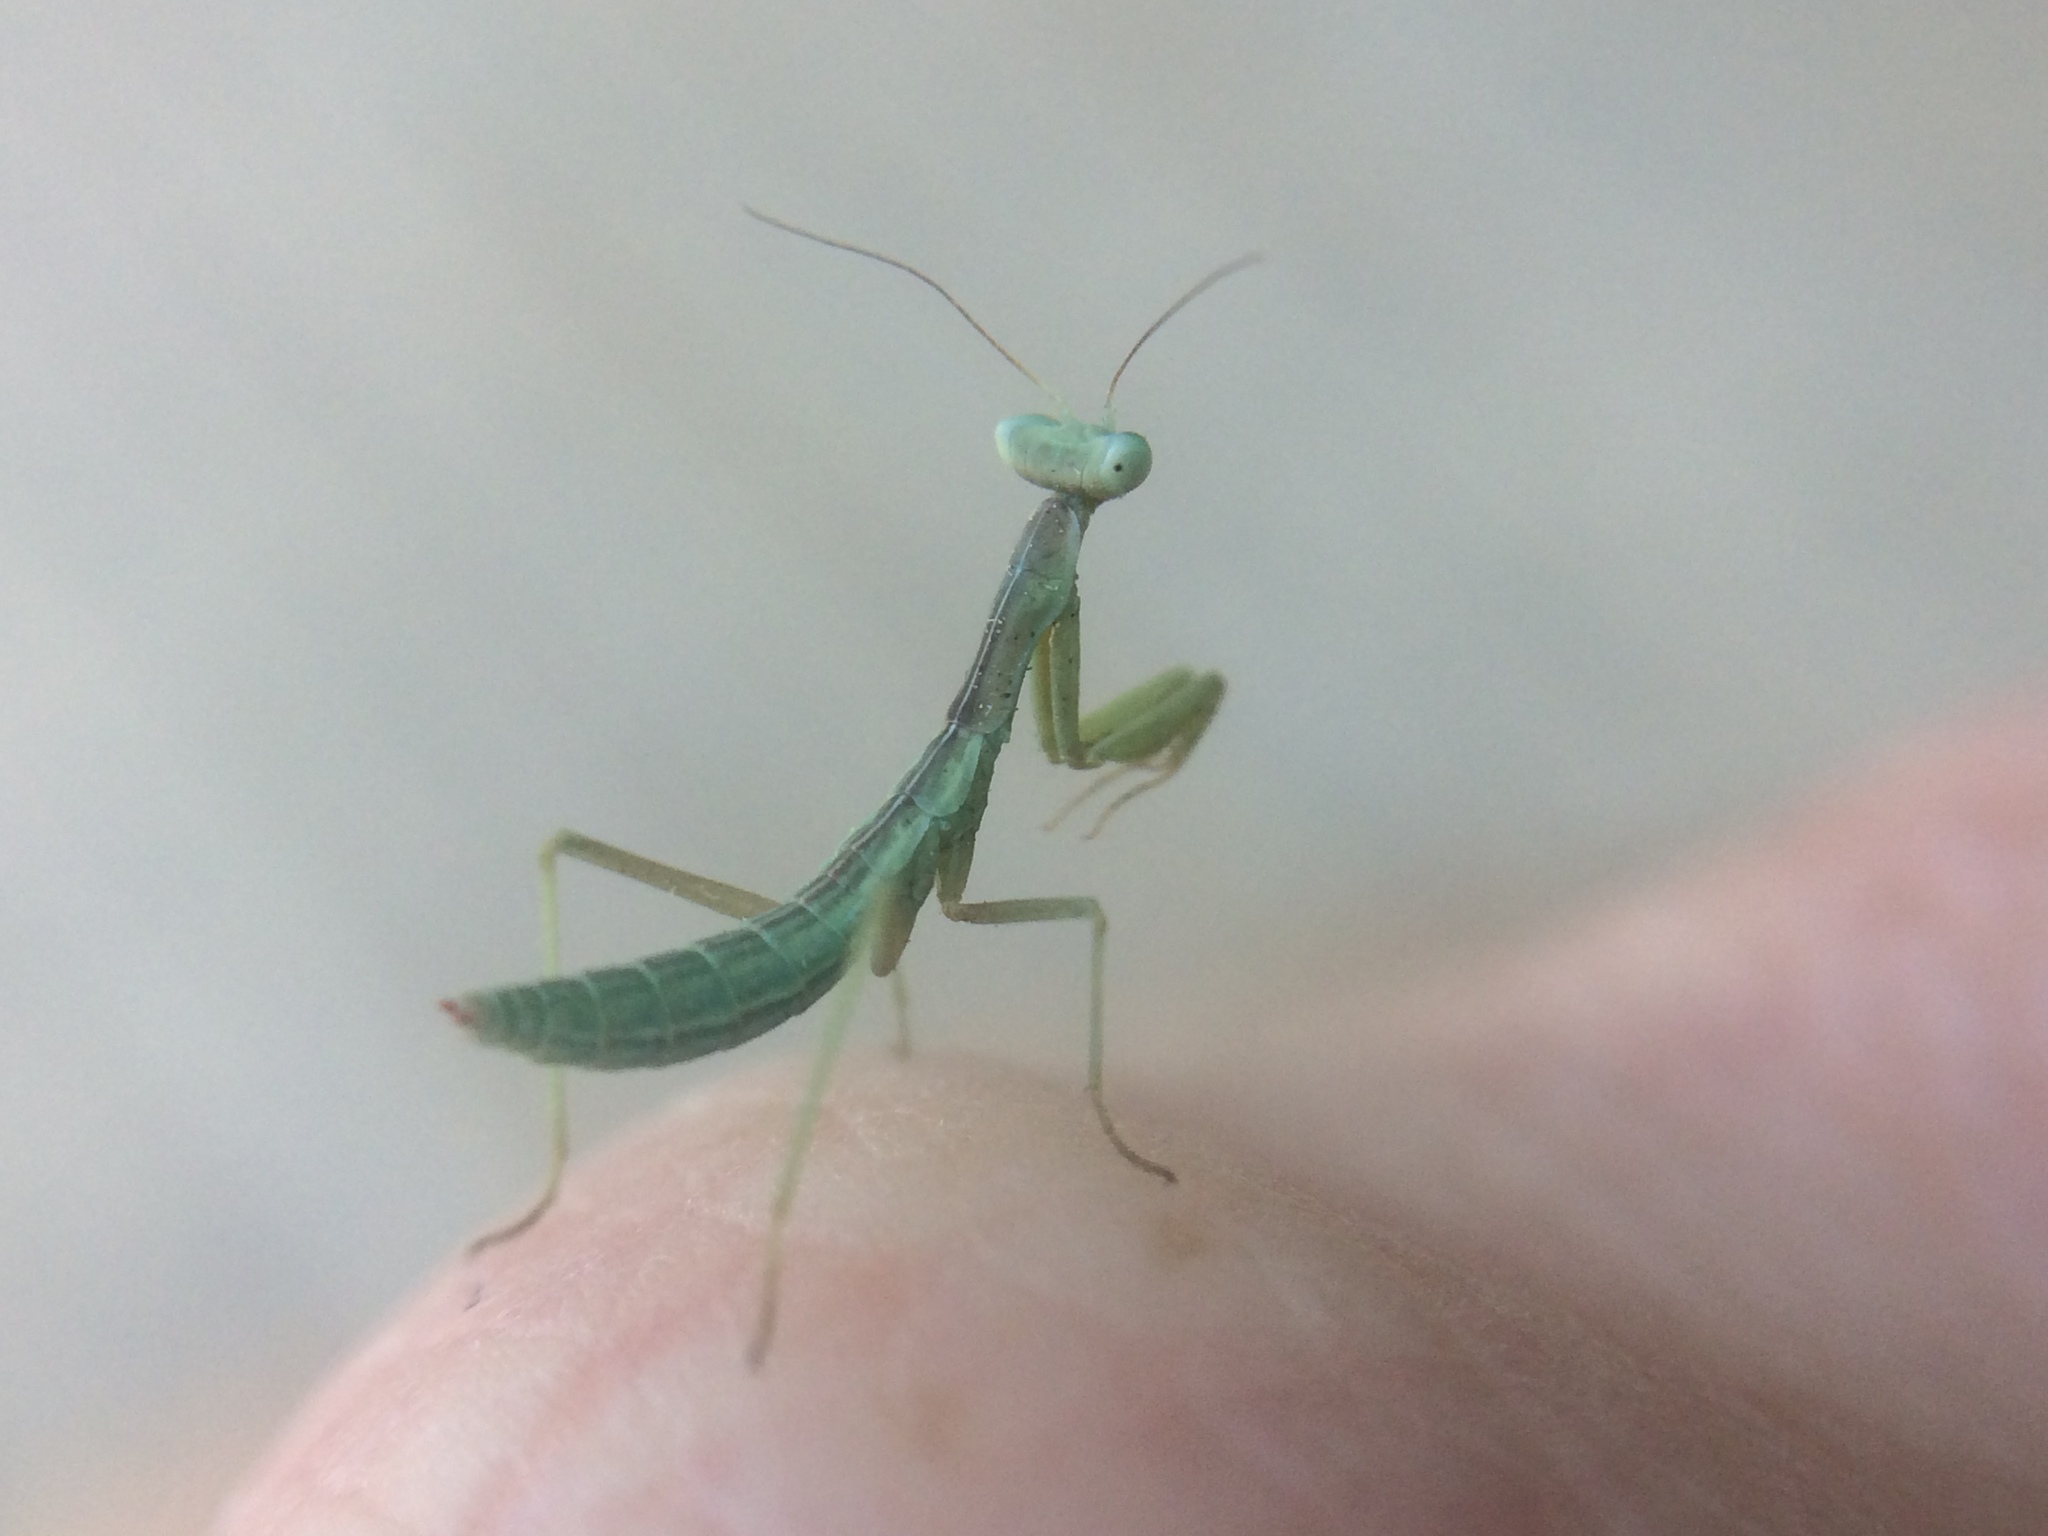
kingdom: Animalia
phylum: Arthropoda
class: Insecta
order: Mantodea
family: Eremiaphilidae
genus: Iris
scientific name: Iris oratoria
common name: Mediterranean mantis
